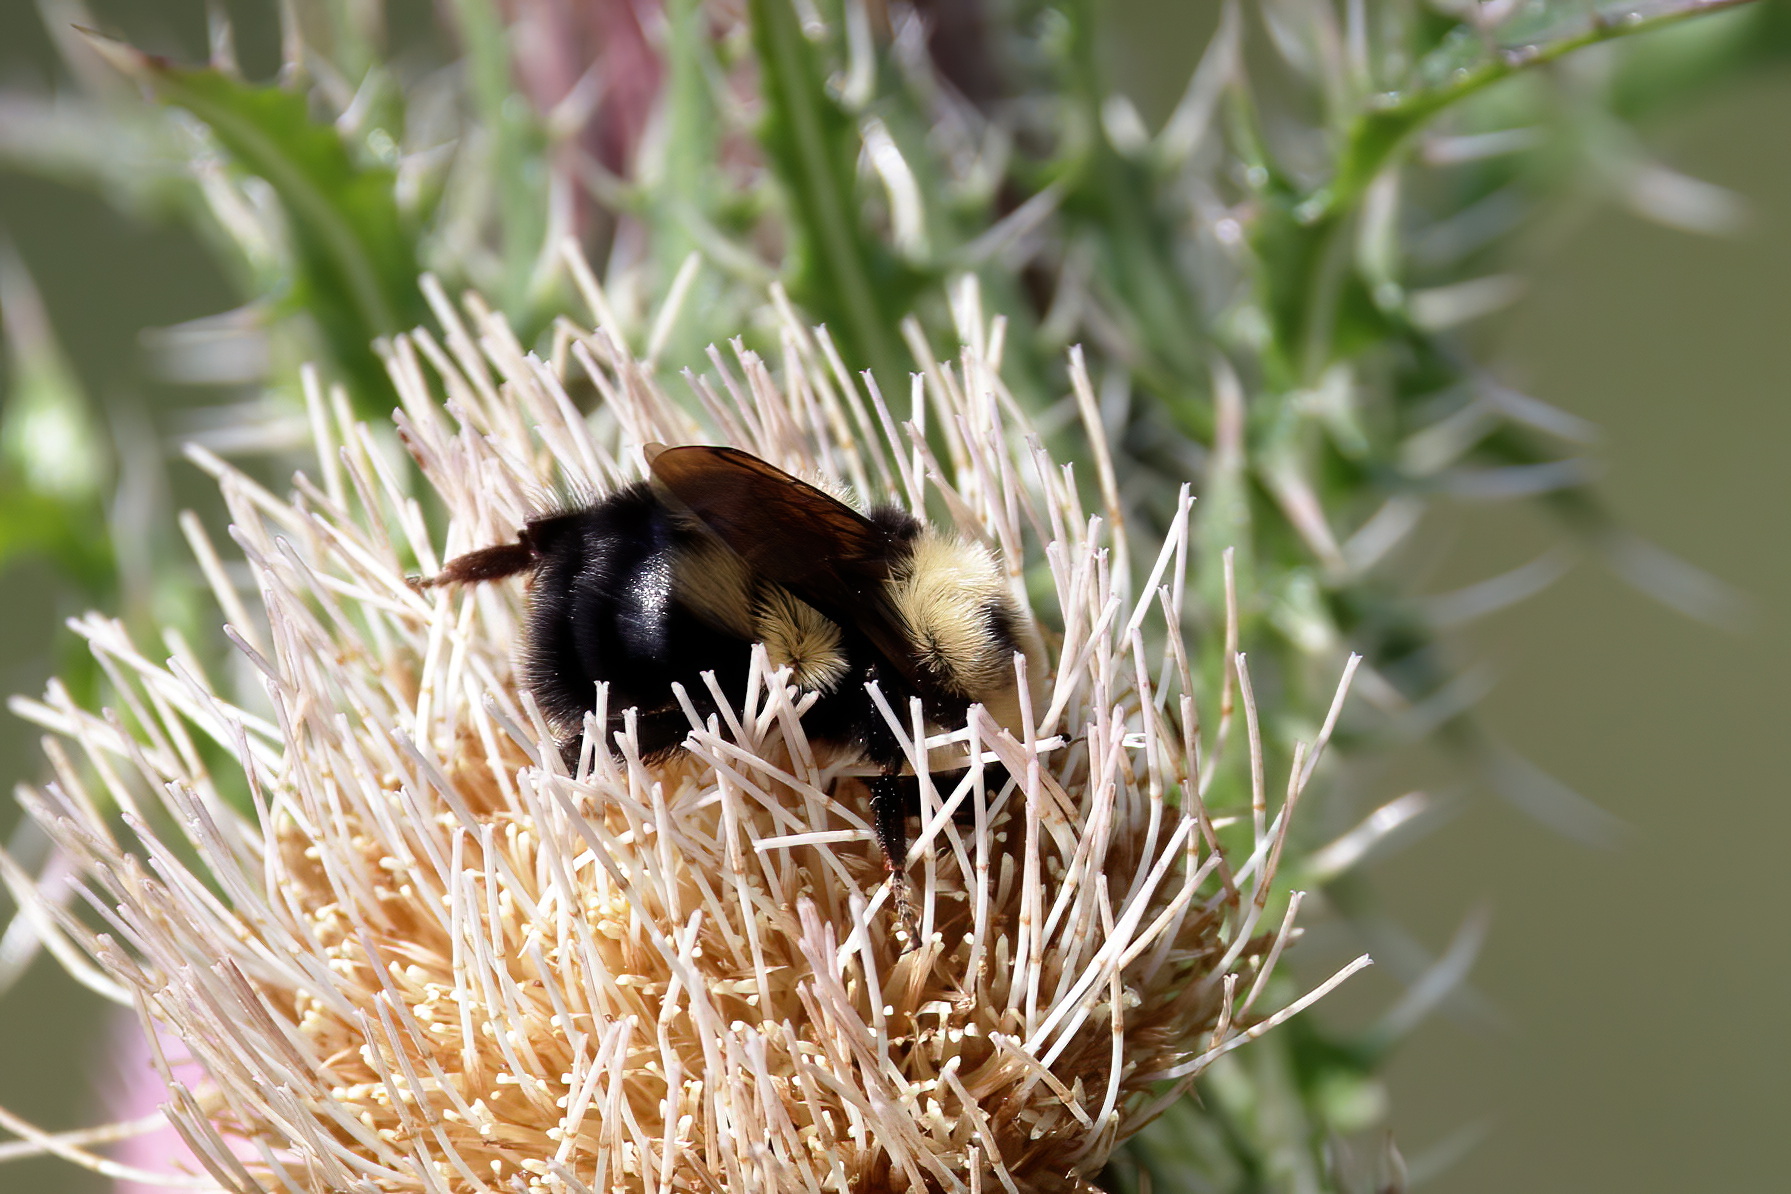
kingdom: Animalia
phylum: Arthropoda
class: Insecta
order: Hymenoptera
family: Apidae
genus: Bombus
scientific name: Bombus bimaculatus
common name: Two-spotted bumble bee
